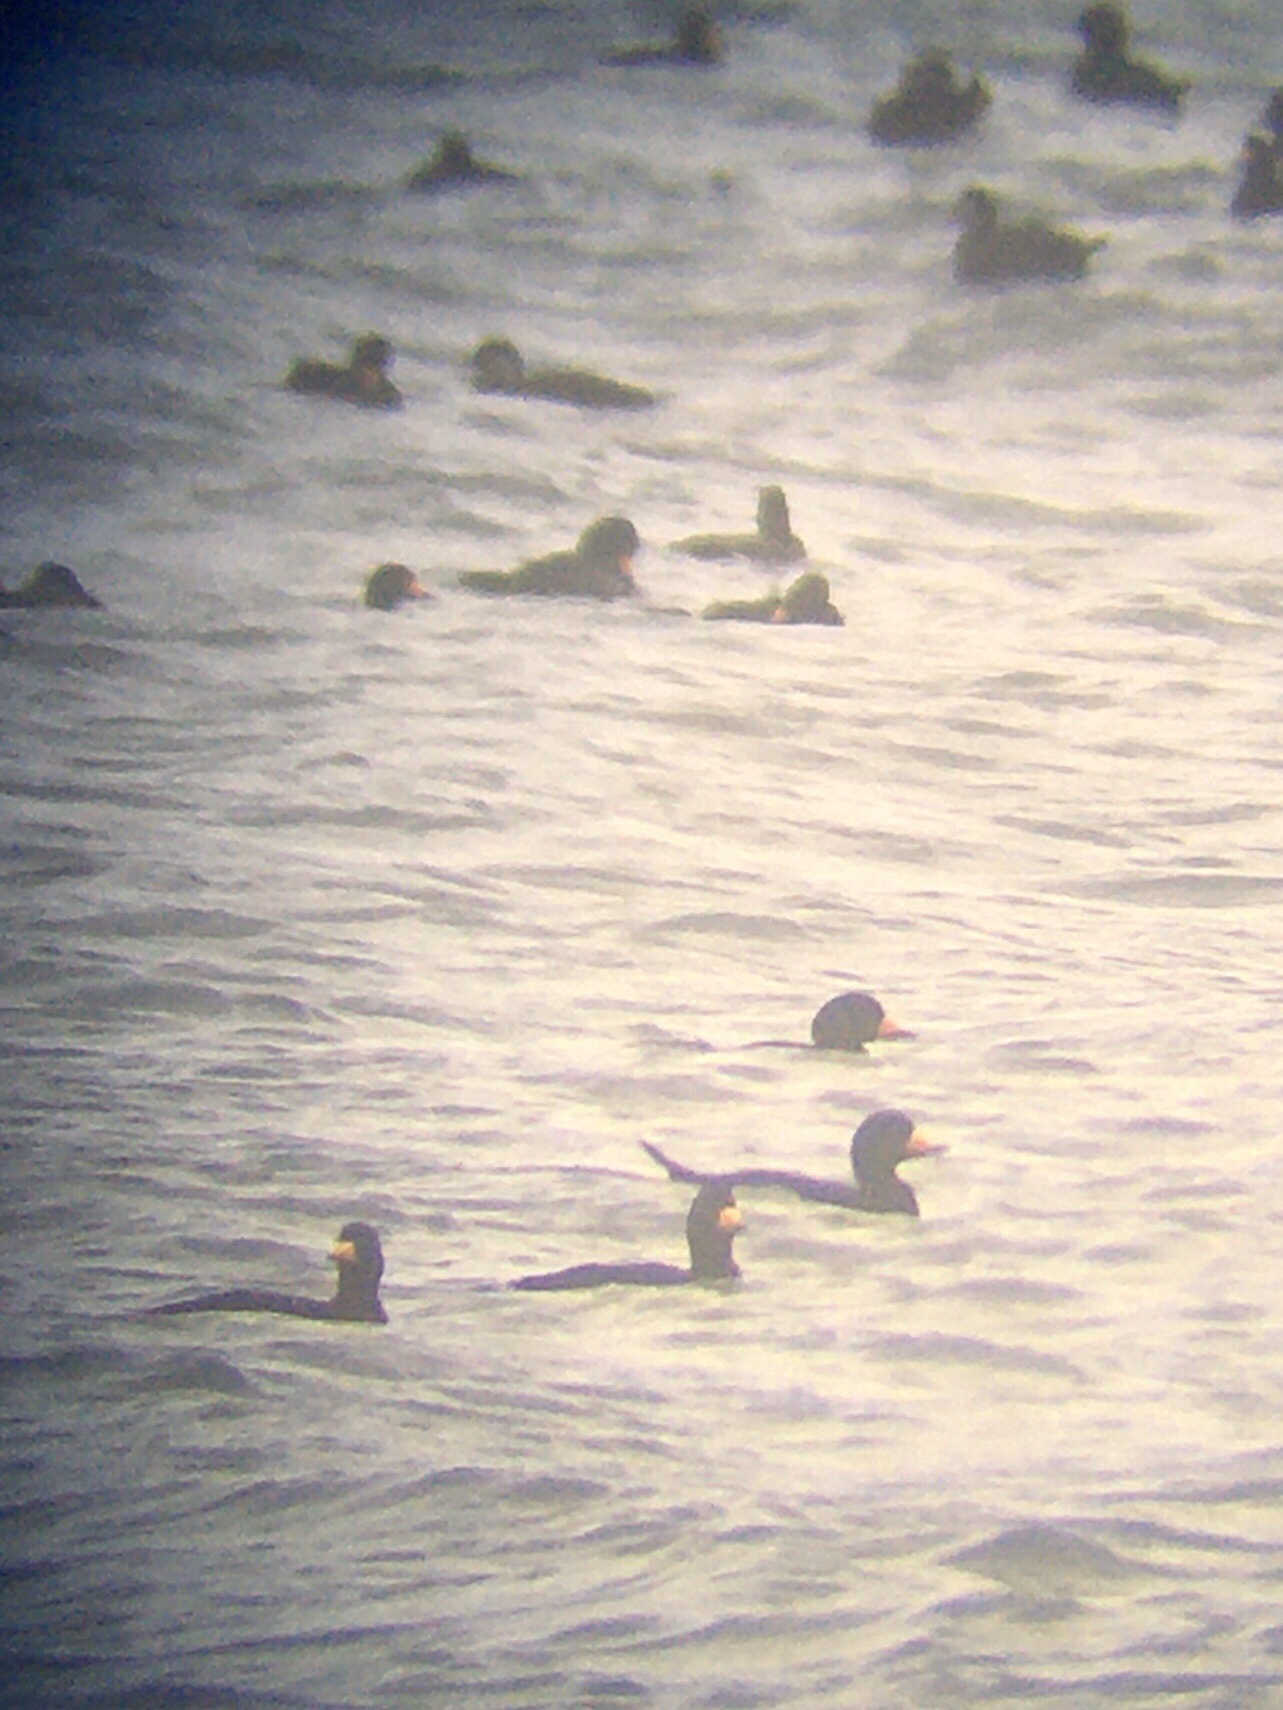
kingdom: Animalia
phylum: Chordata
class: Aves
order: Anseriformes
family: Anatidae
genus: Melanitta
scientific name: Melanitta americana
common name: Black scoter
